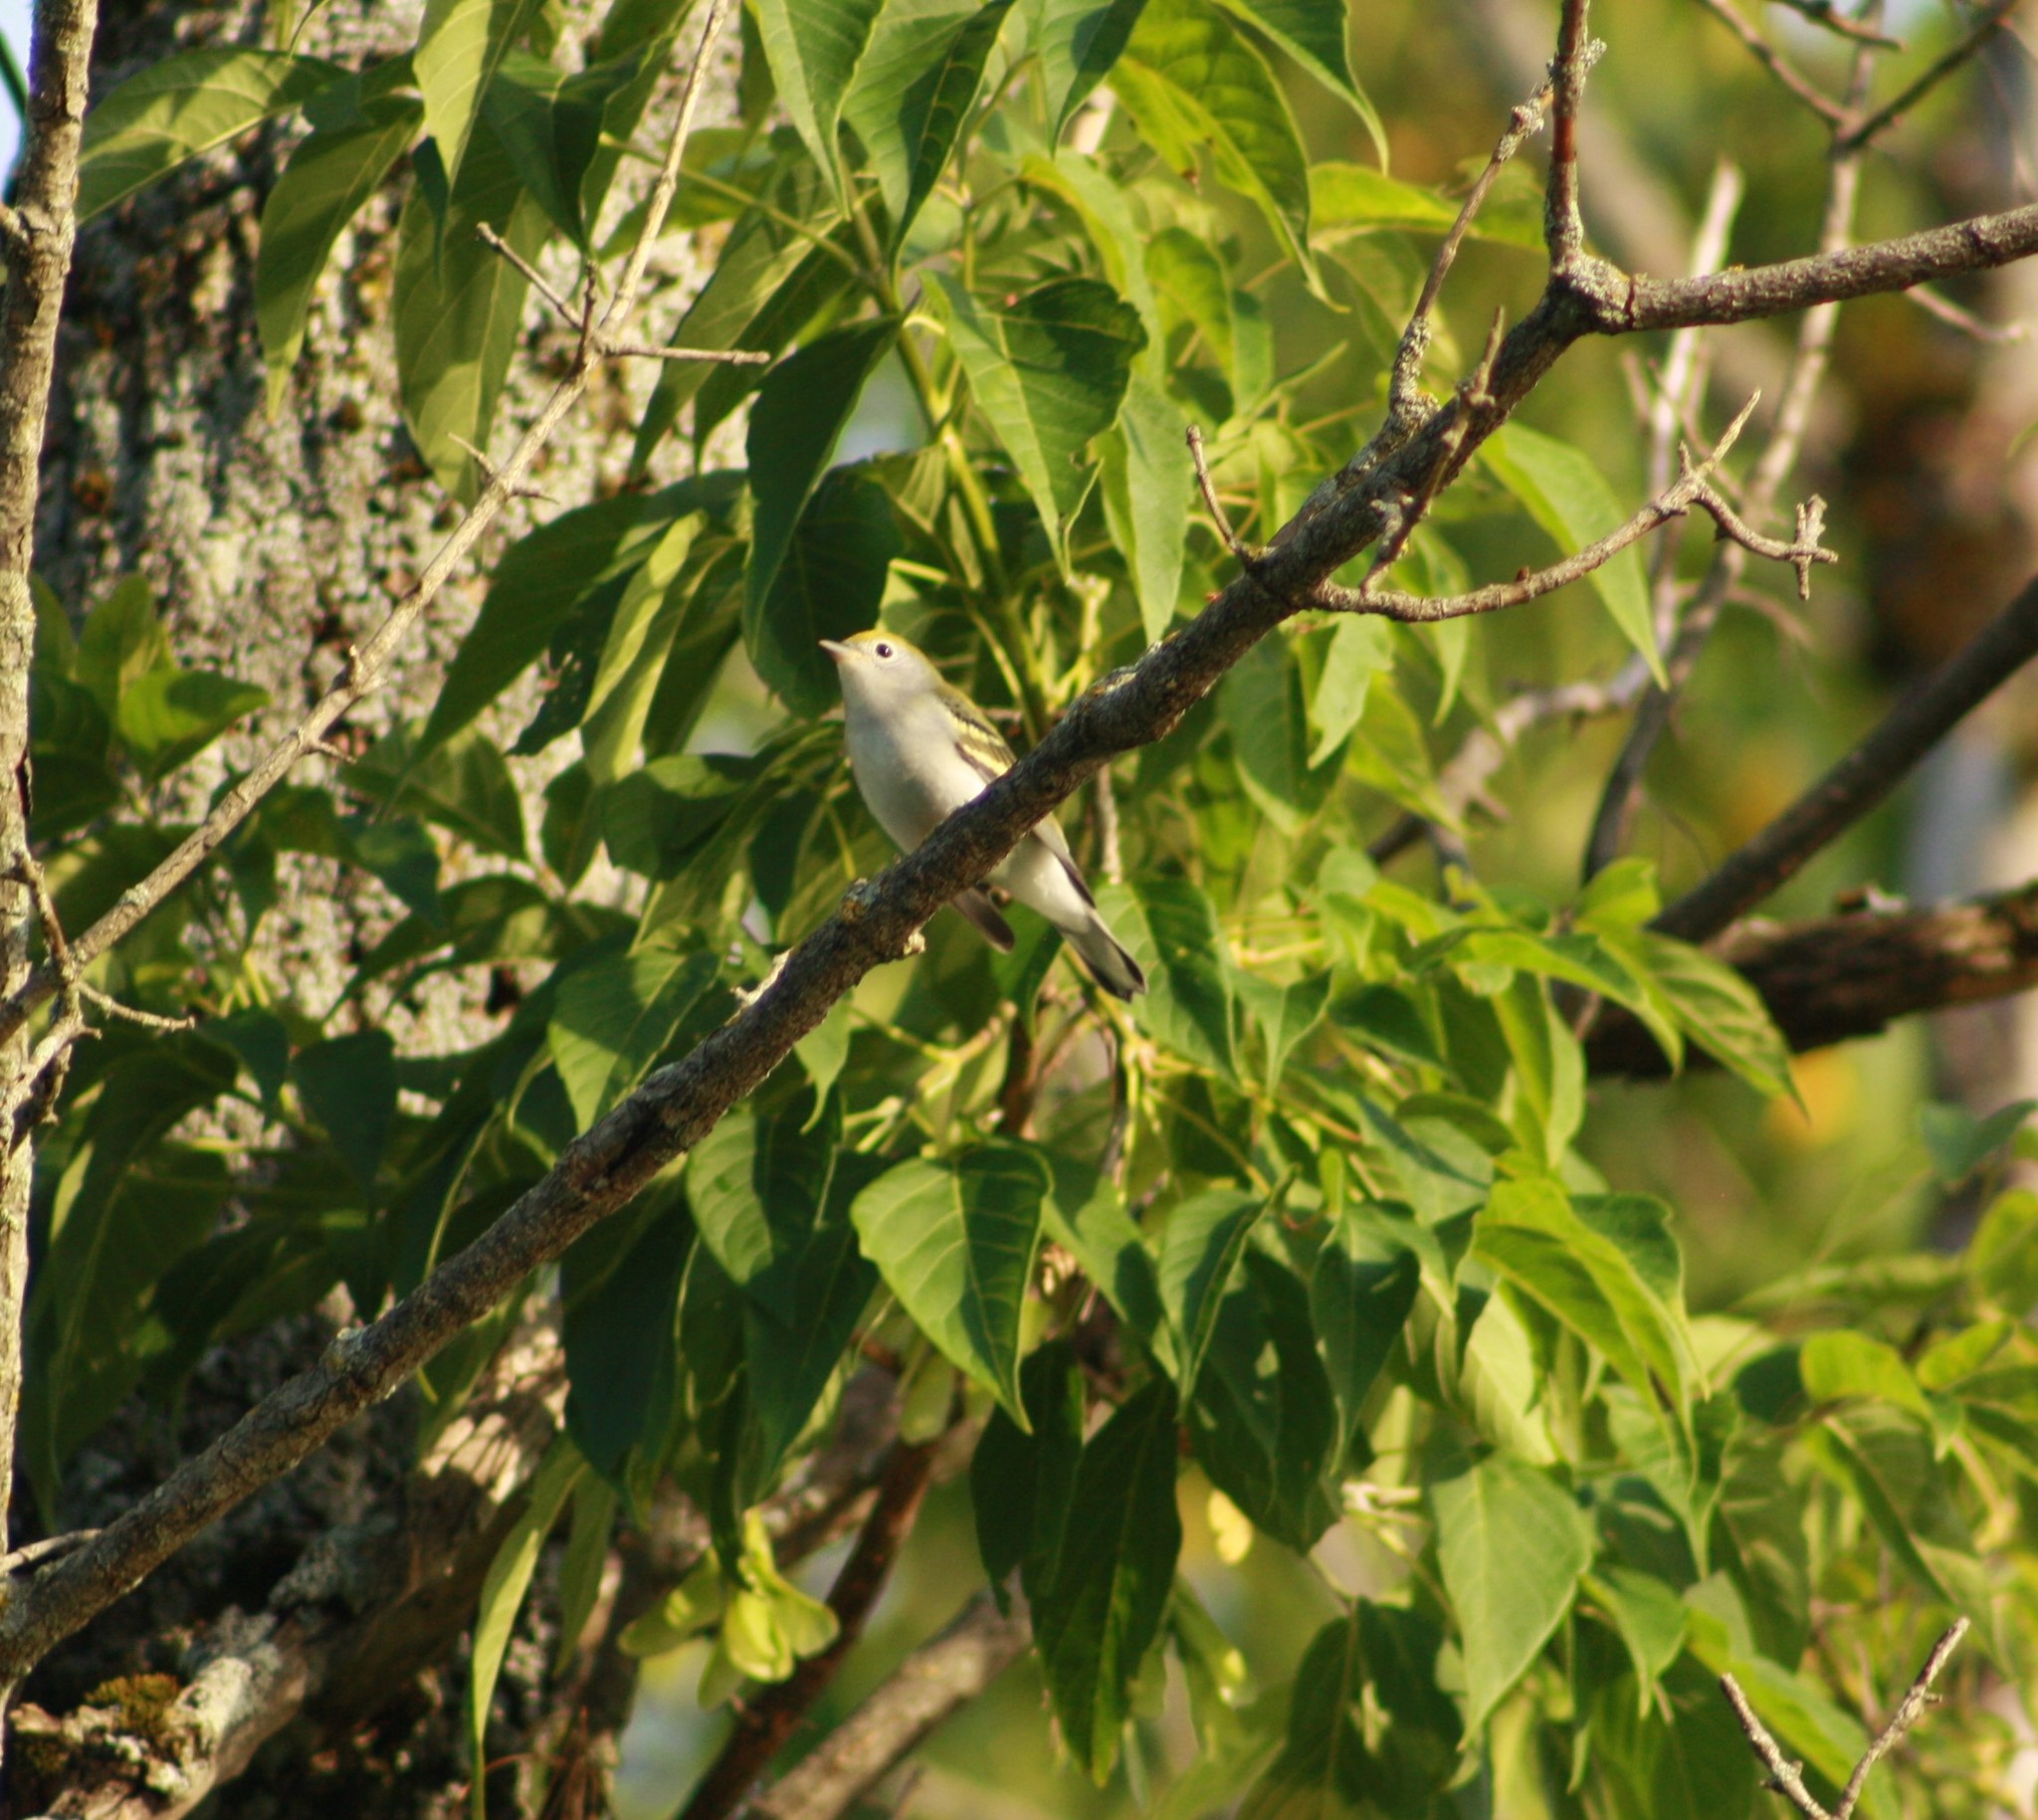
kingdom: Animalia
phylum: Chordata
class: Aves
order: Passeriformes
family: Parulidae
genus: Setophaga
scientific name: Setophaga pensylvanica
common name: Chestnut-sided warbler
